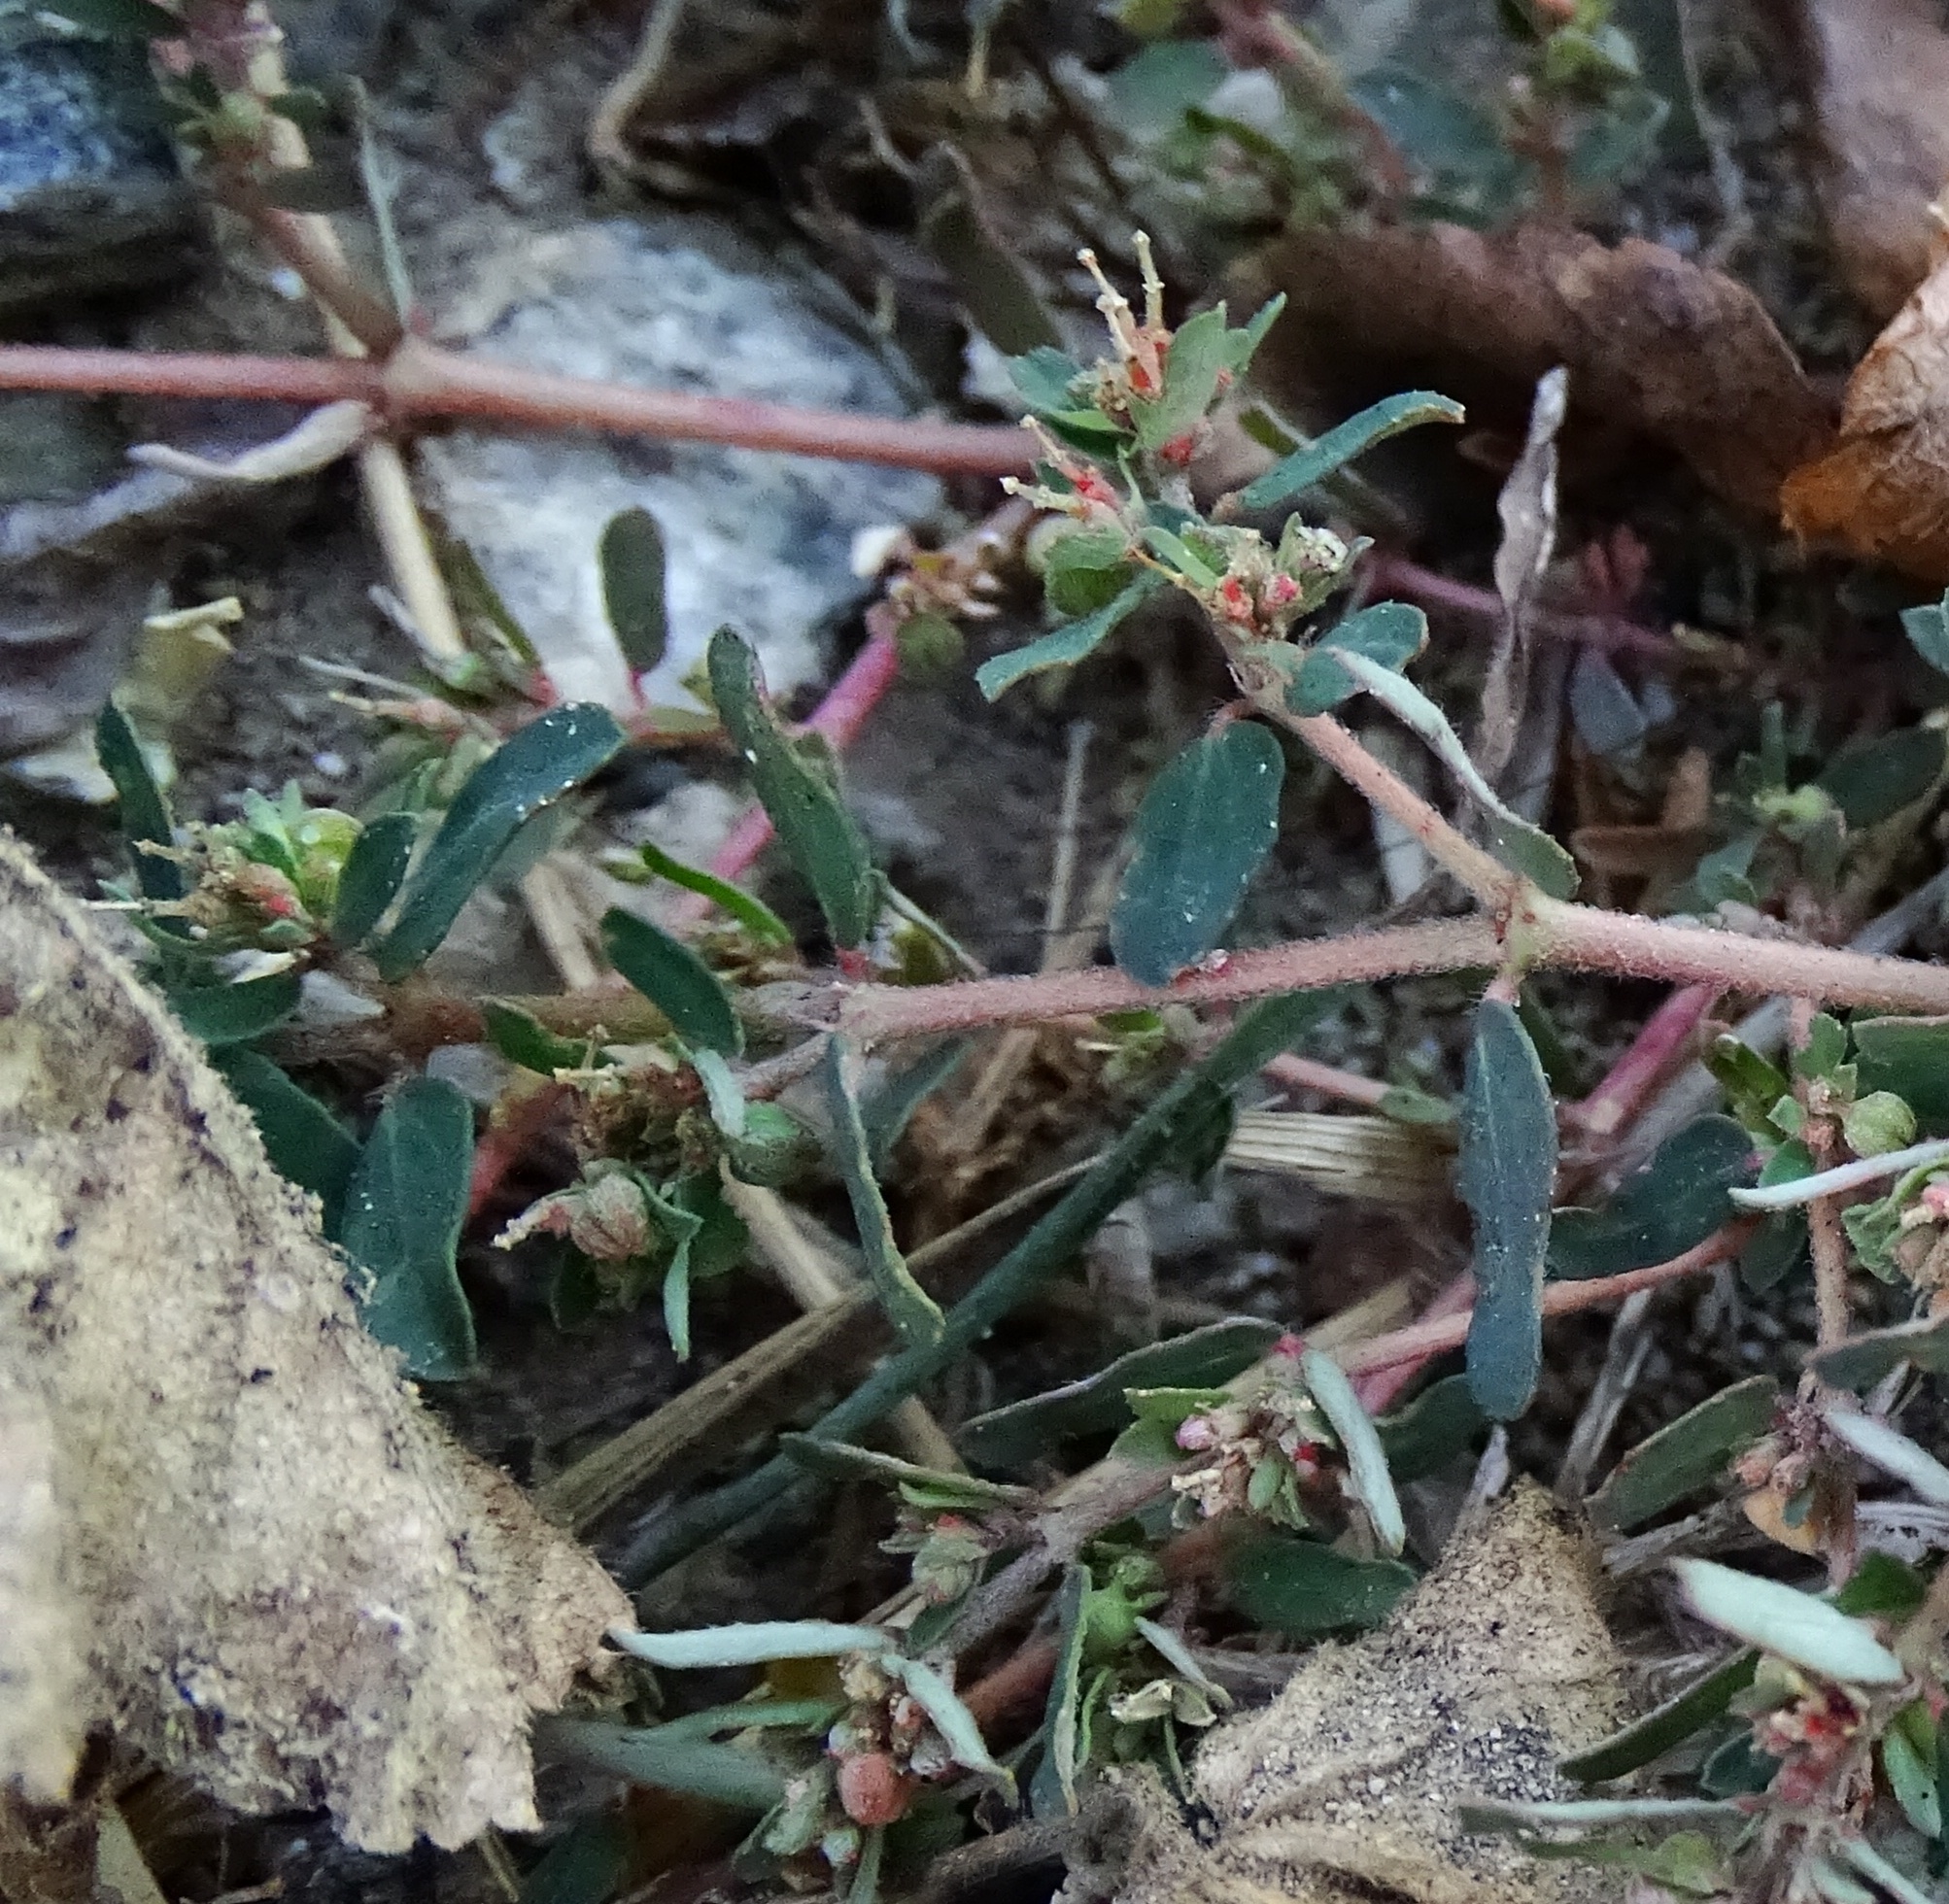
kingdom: Plantae
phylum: Tracheophyta
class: Magnoliopsida
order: Malpighiales
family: Euphorbiaceae
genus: Euphorbia
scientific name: Euphorbia maculata
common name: Spotted spurge
